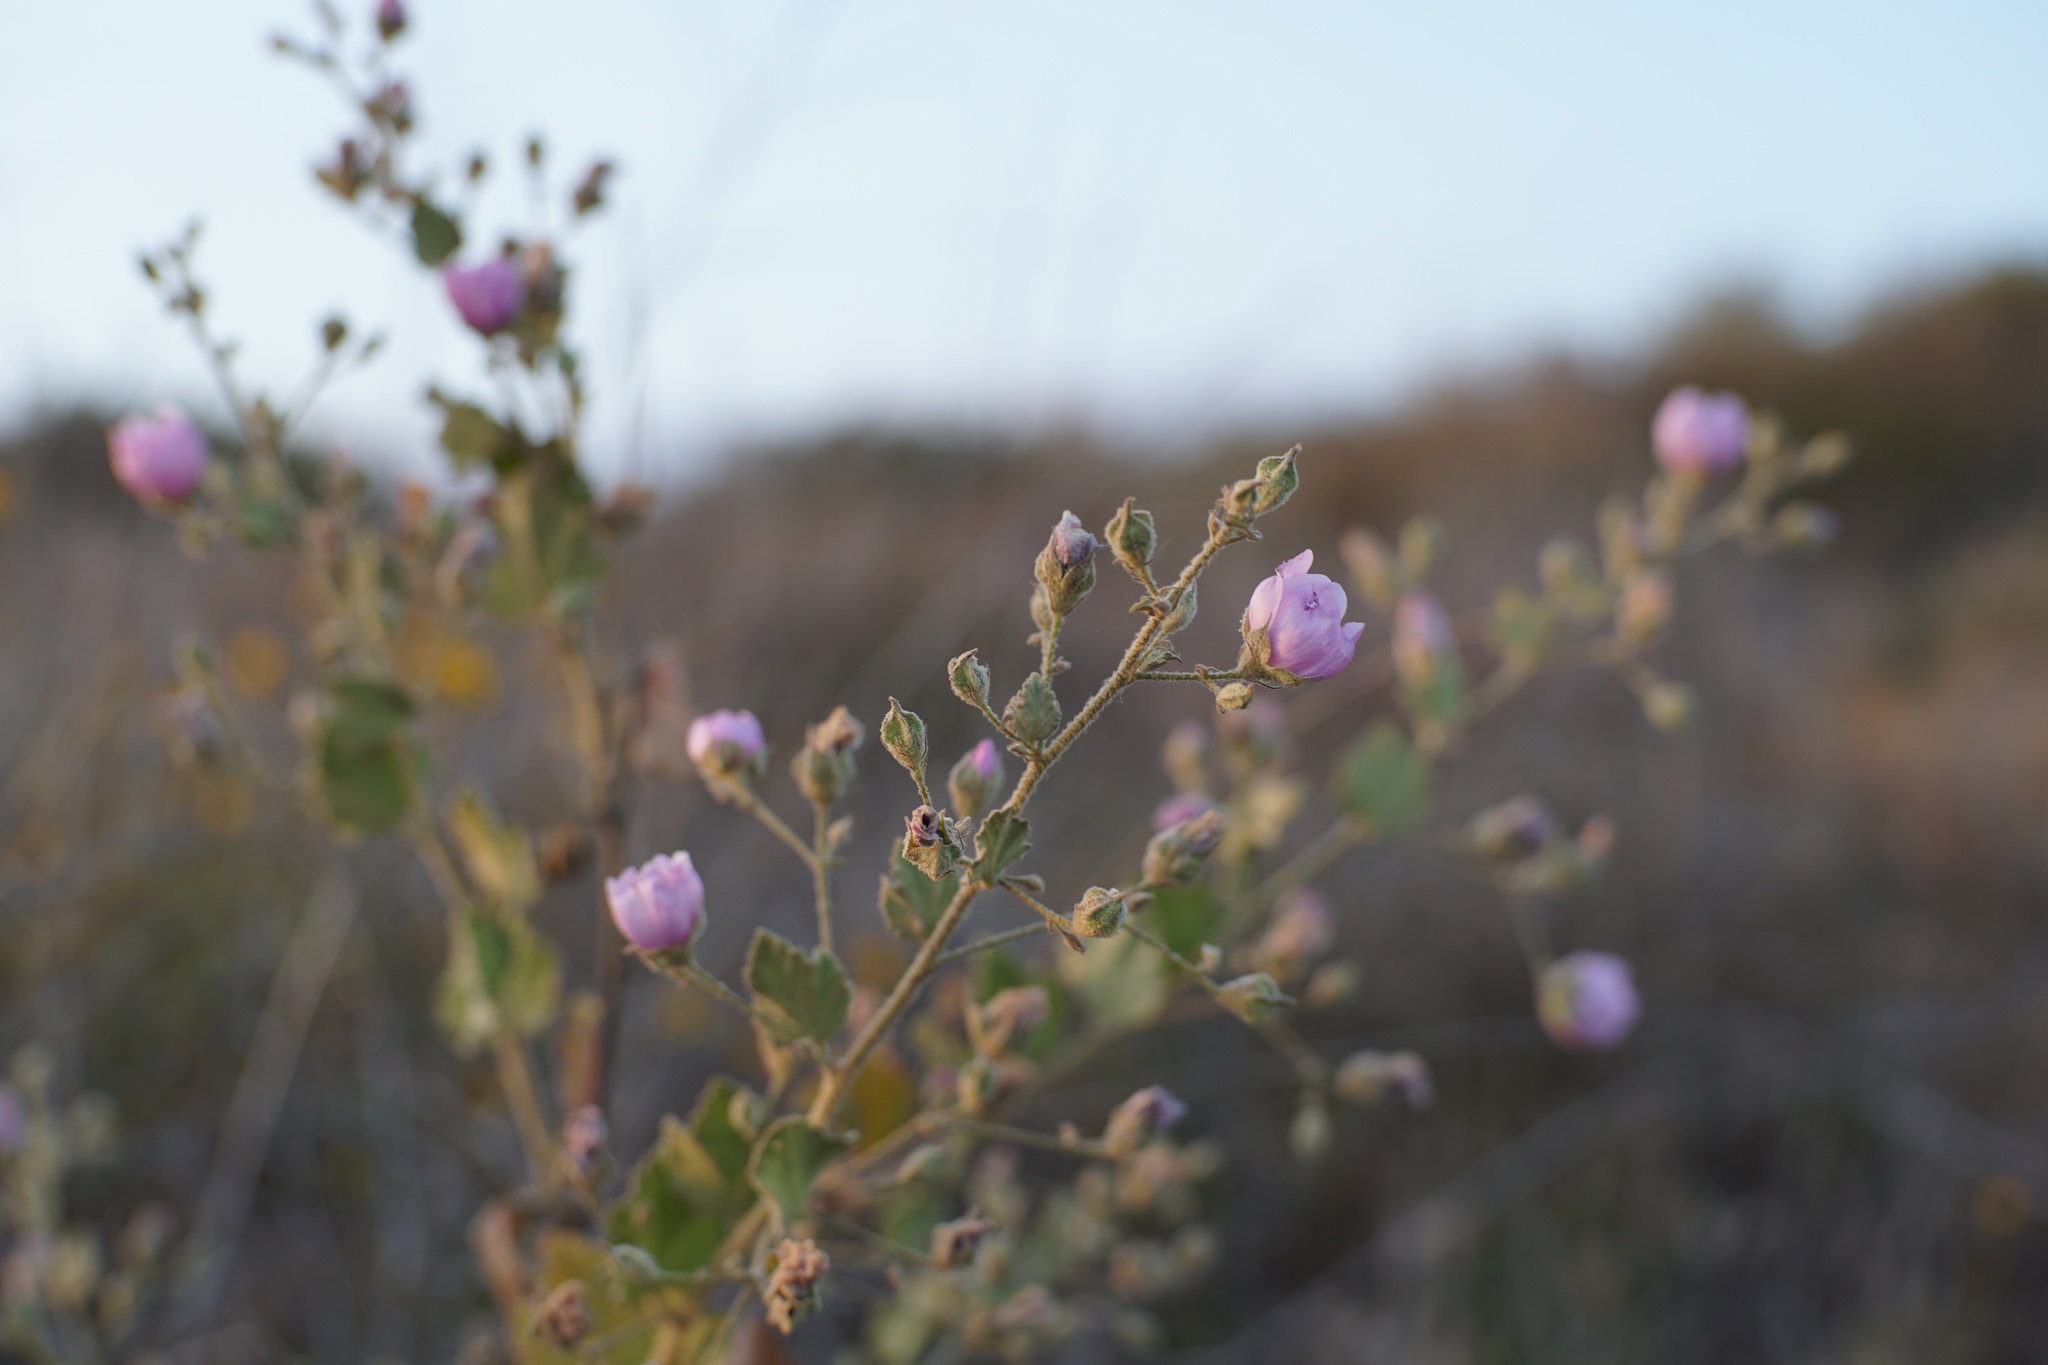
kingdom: Plantae
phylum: Tracheophyta
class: Magnoliopsida
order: Malvales
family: Malvaceae
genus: Malacothamnus
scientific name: Malacothamnus foliosus
